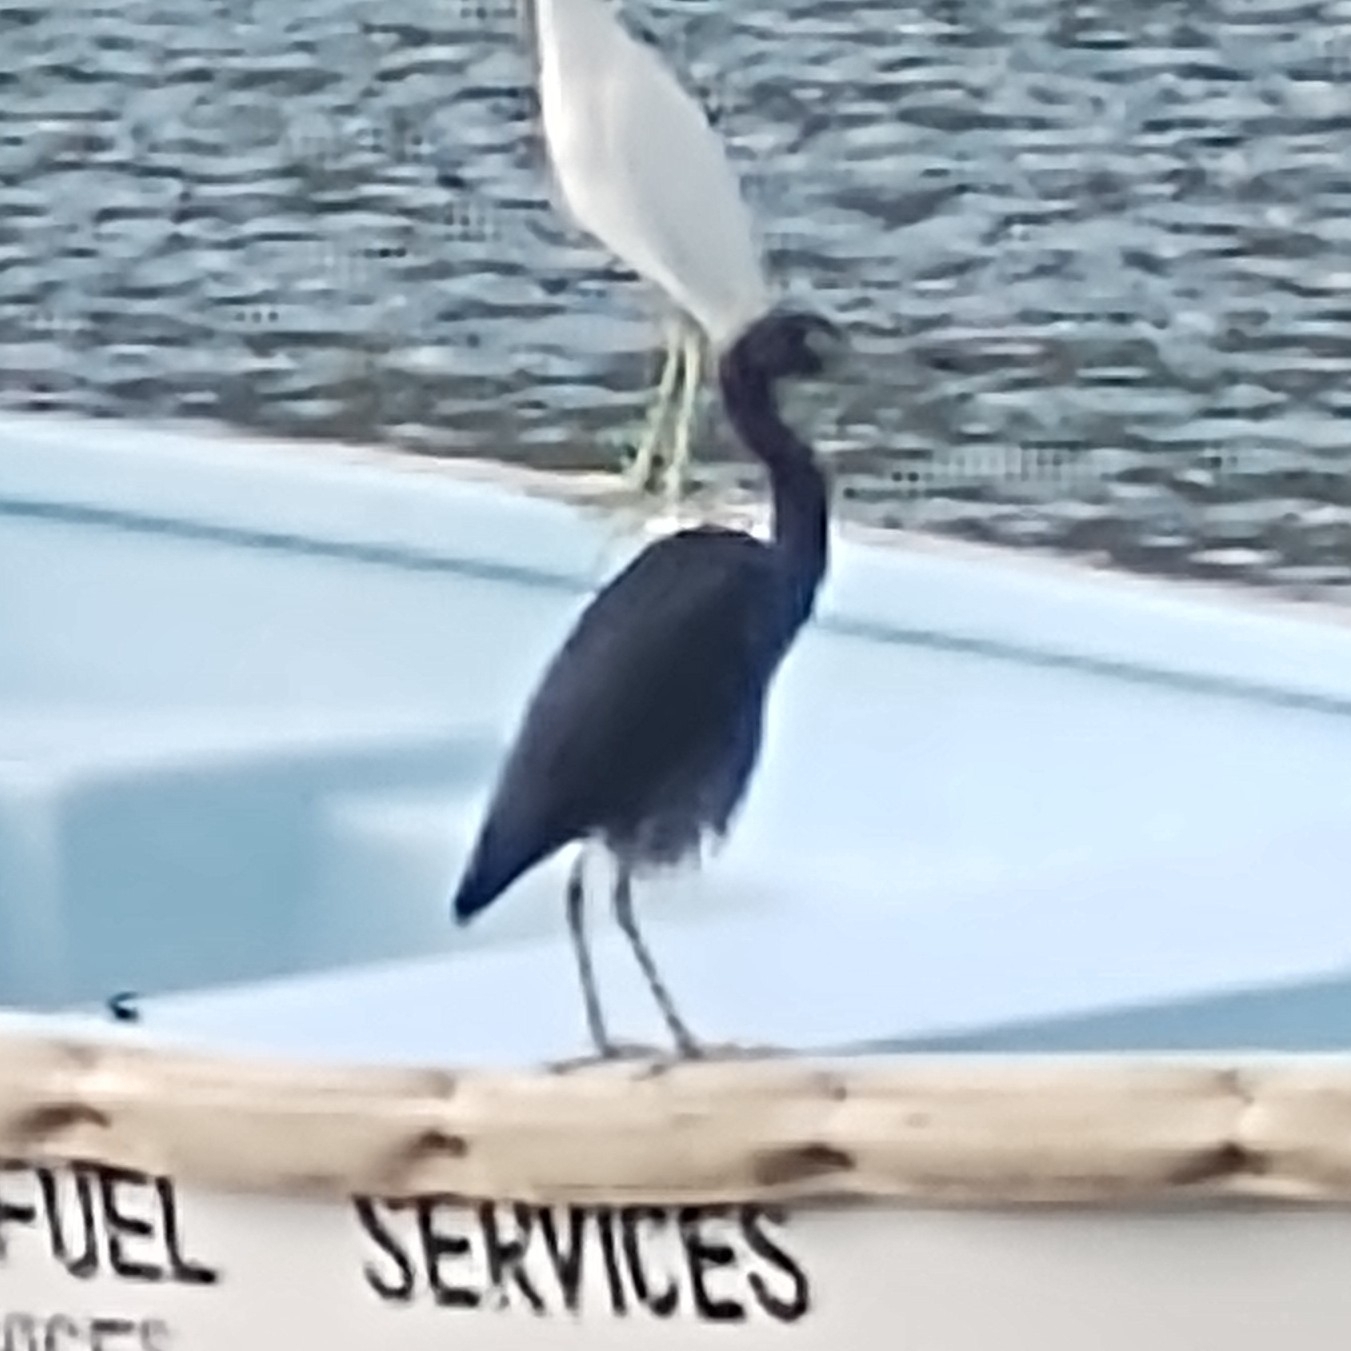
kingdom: Animalia
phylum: Chordata
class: Aves
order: Pelecaniformes
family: Ardeidae
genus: Egretta
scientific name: Egretta caerulea
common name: Little blue heron
